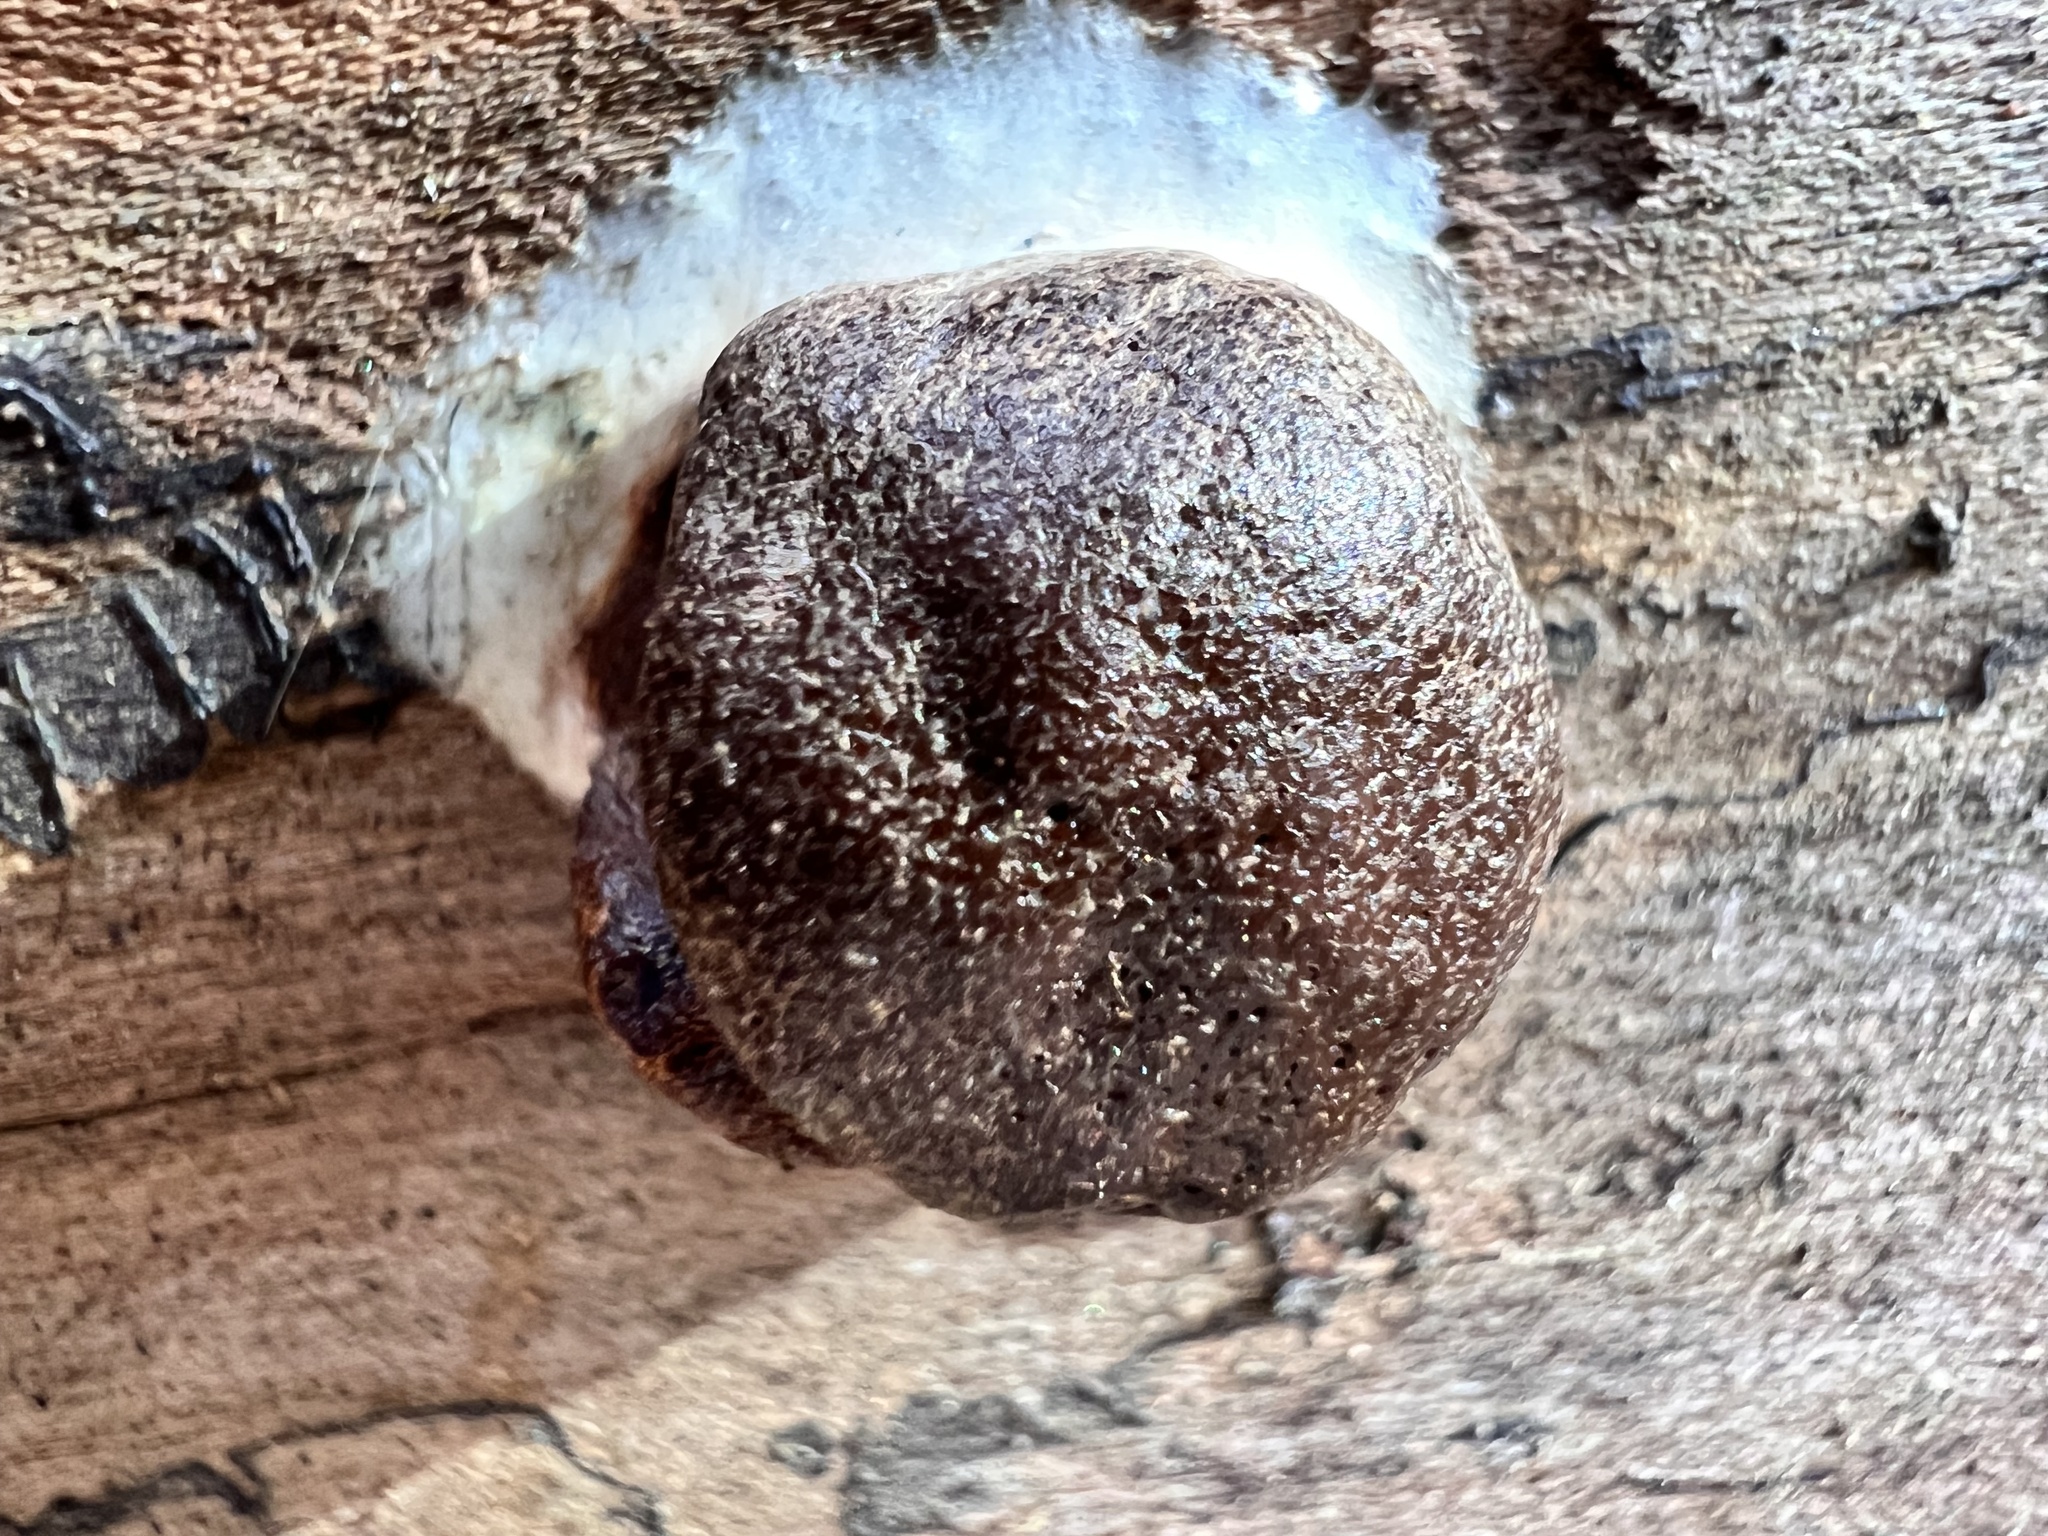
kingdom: Protozoa
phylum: Mycetozoa
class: Myxomycetes
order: Cribrariales
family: Tubiferaceae
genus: Reticularia
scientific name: Reticularia splendens
